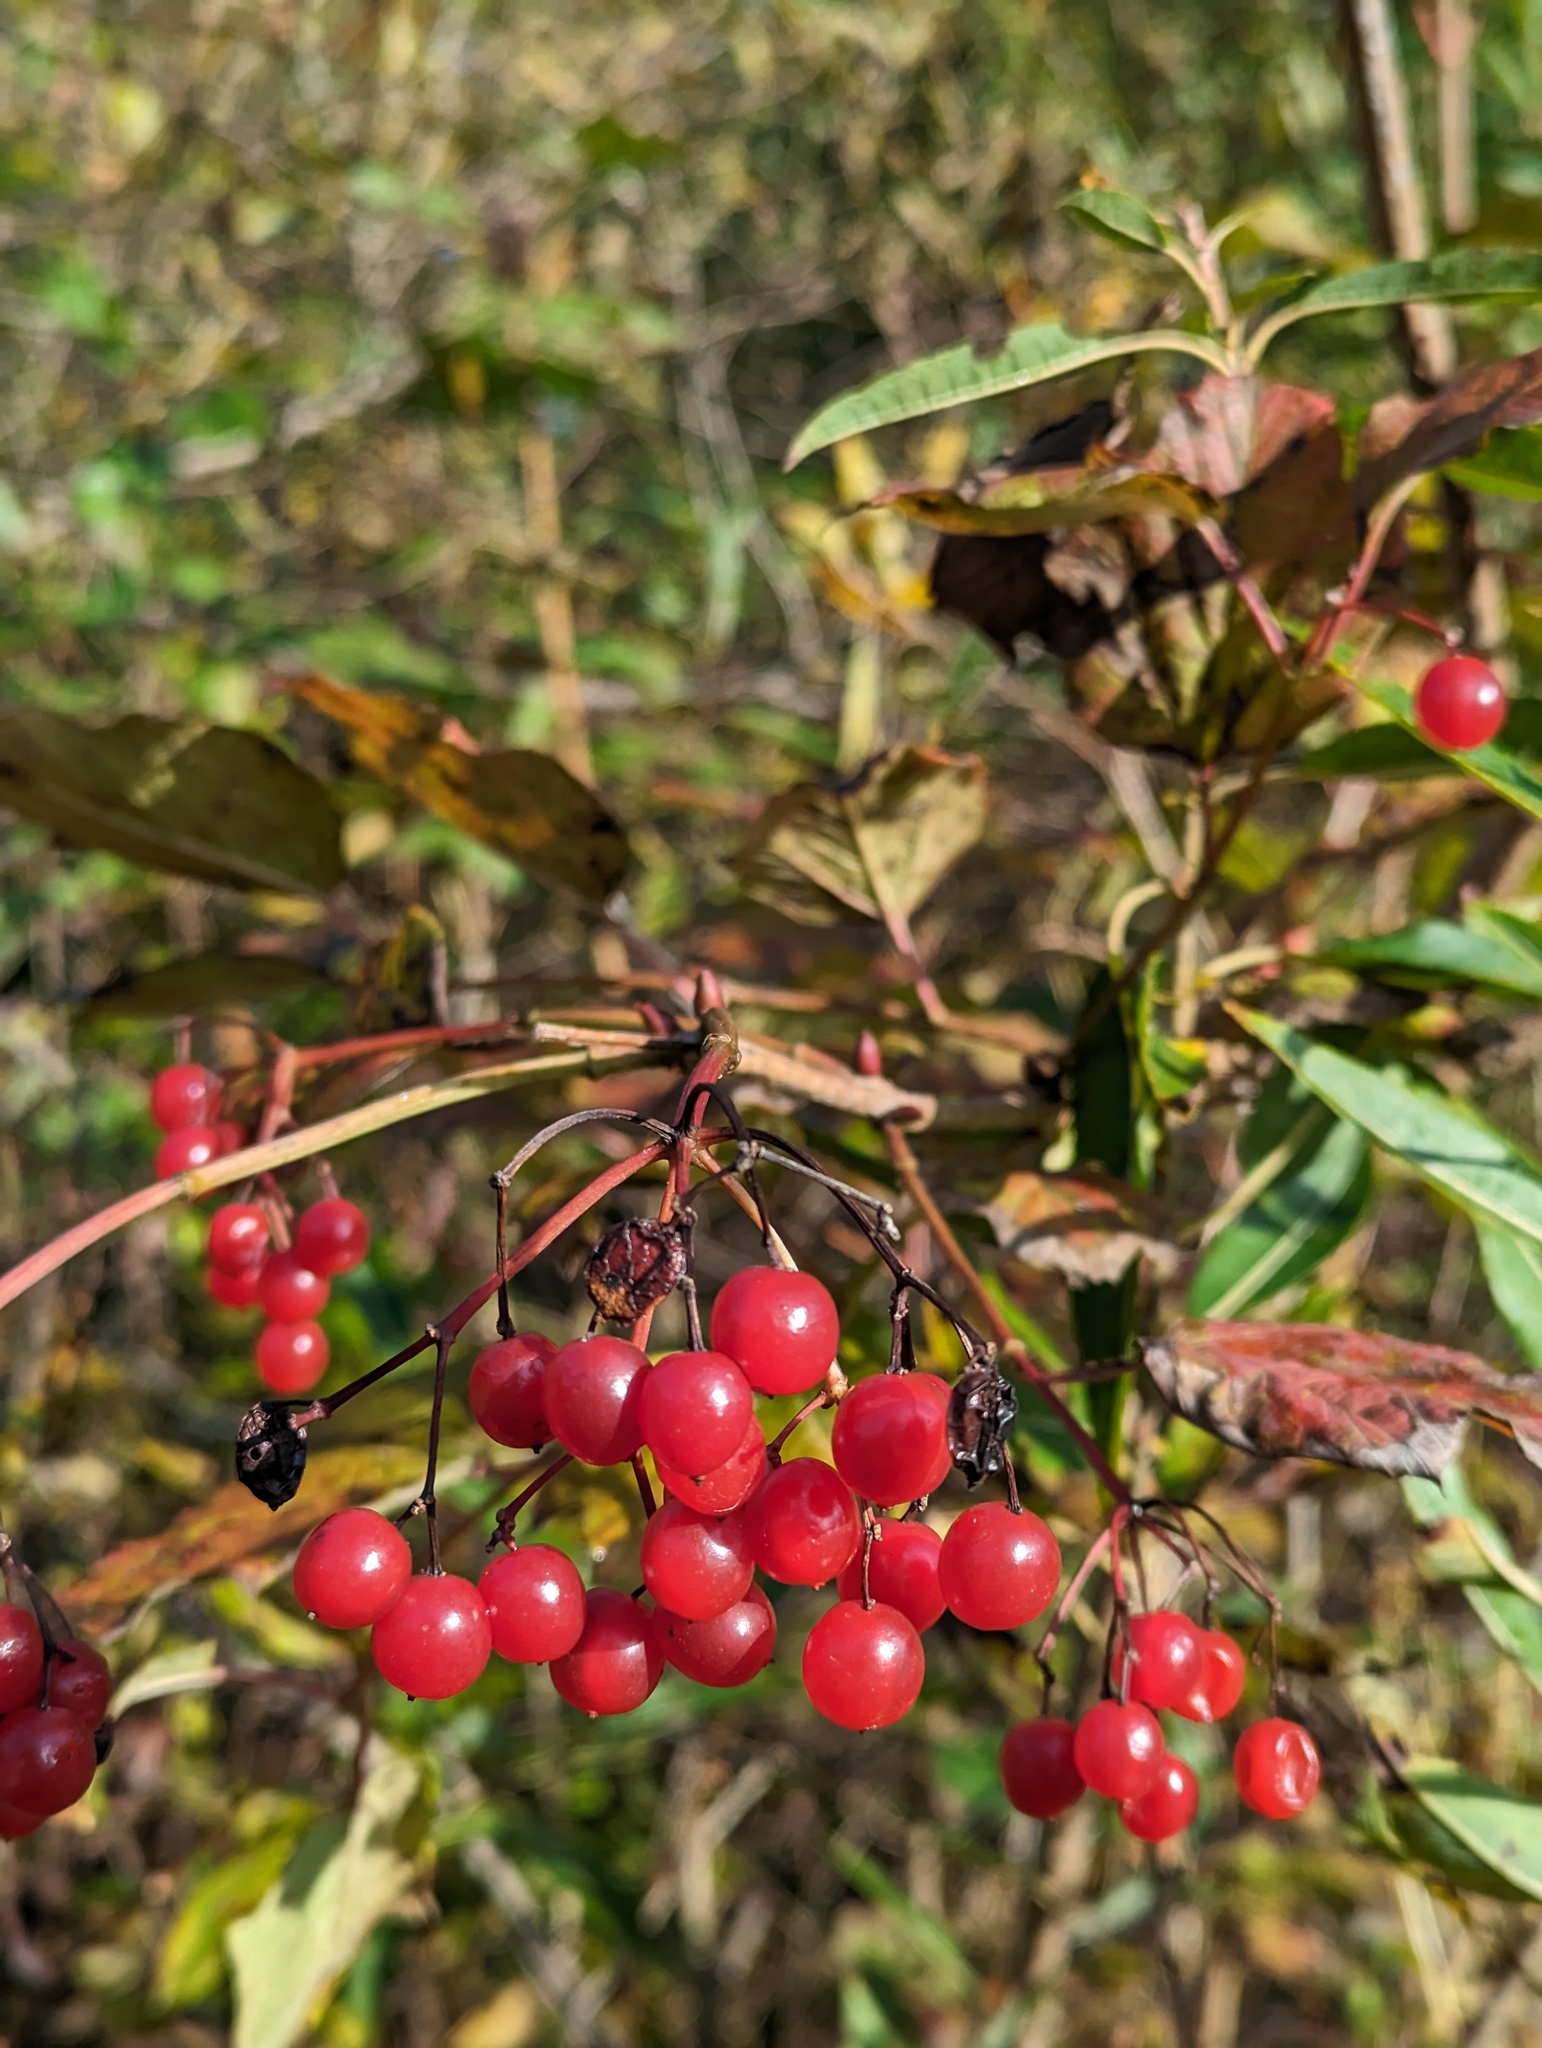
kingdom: Plantae
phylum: Tracheophyta
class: Magnoliopsida
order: Dipsacales
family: Viburnaceae
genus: Viburnum
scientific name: Viburnum opulus
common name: Guelder-rose
